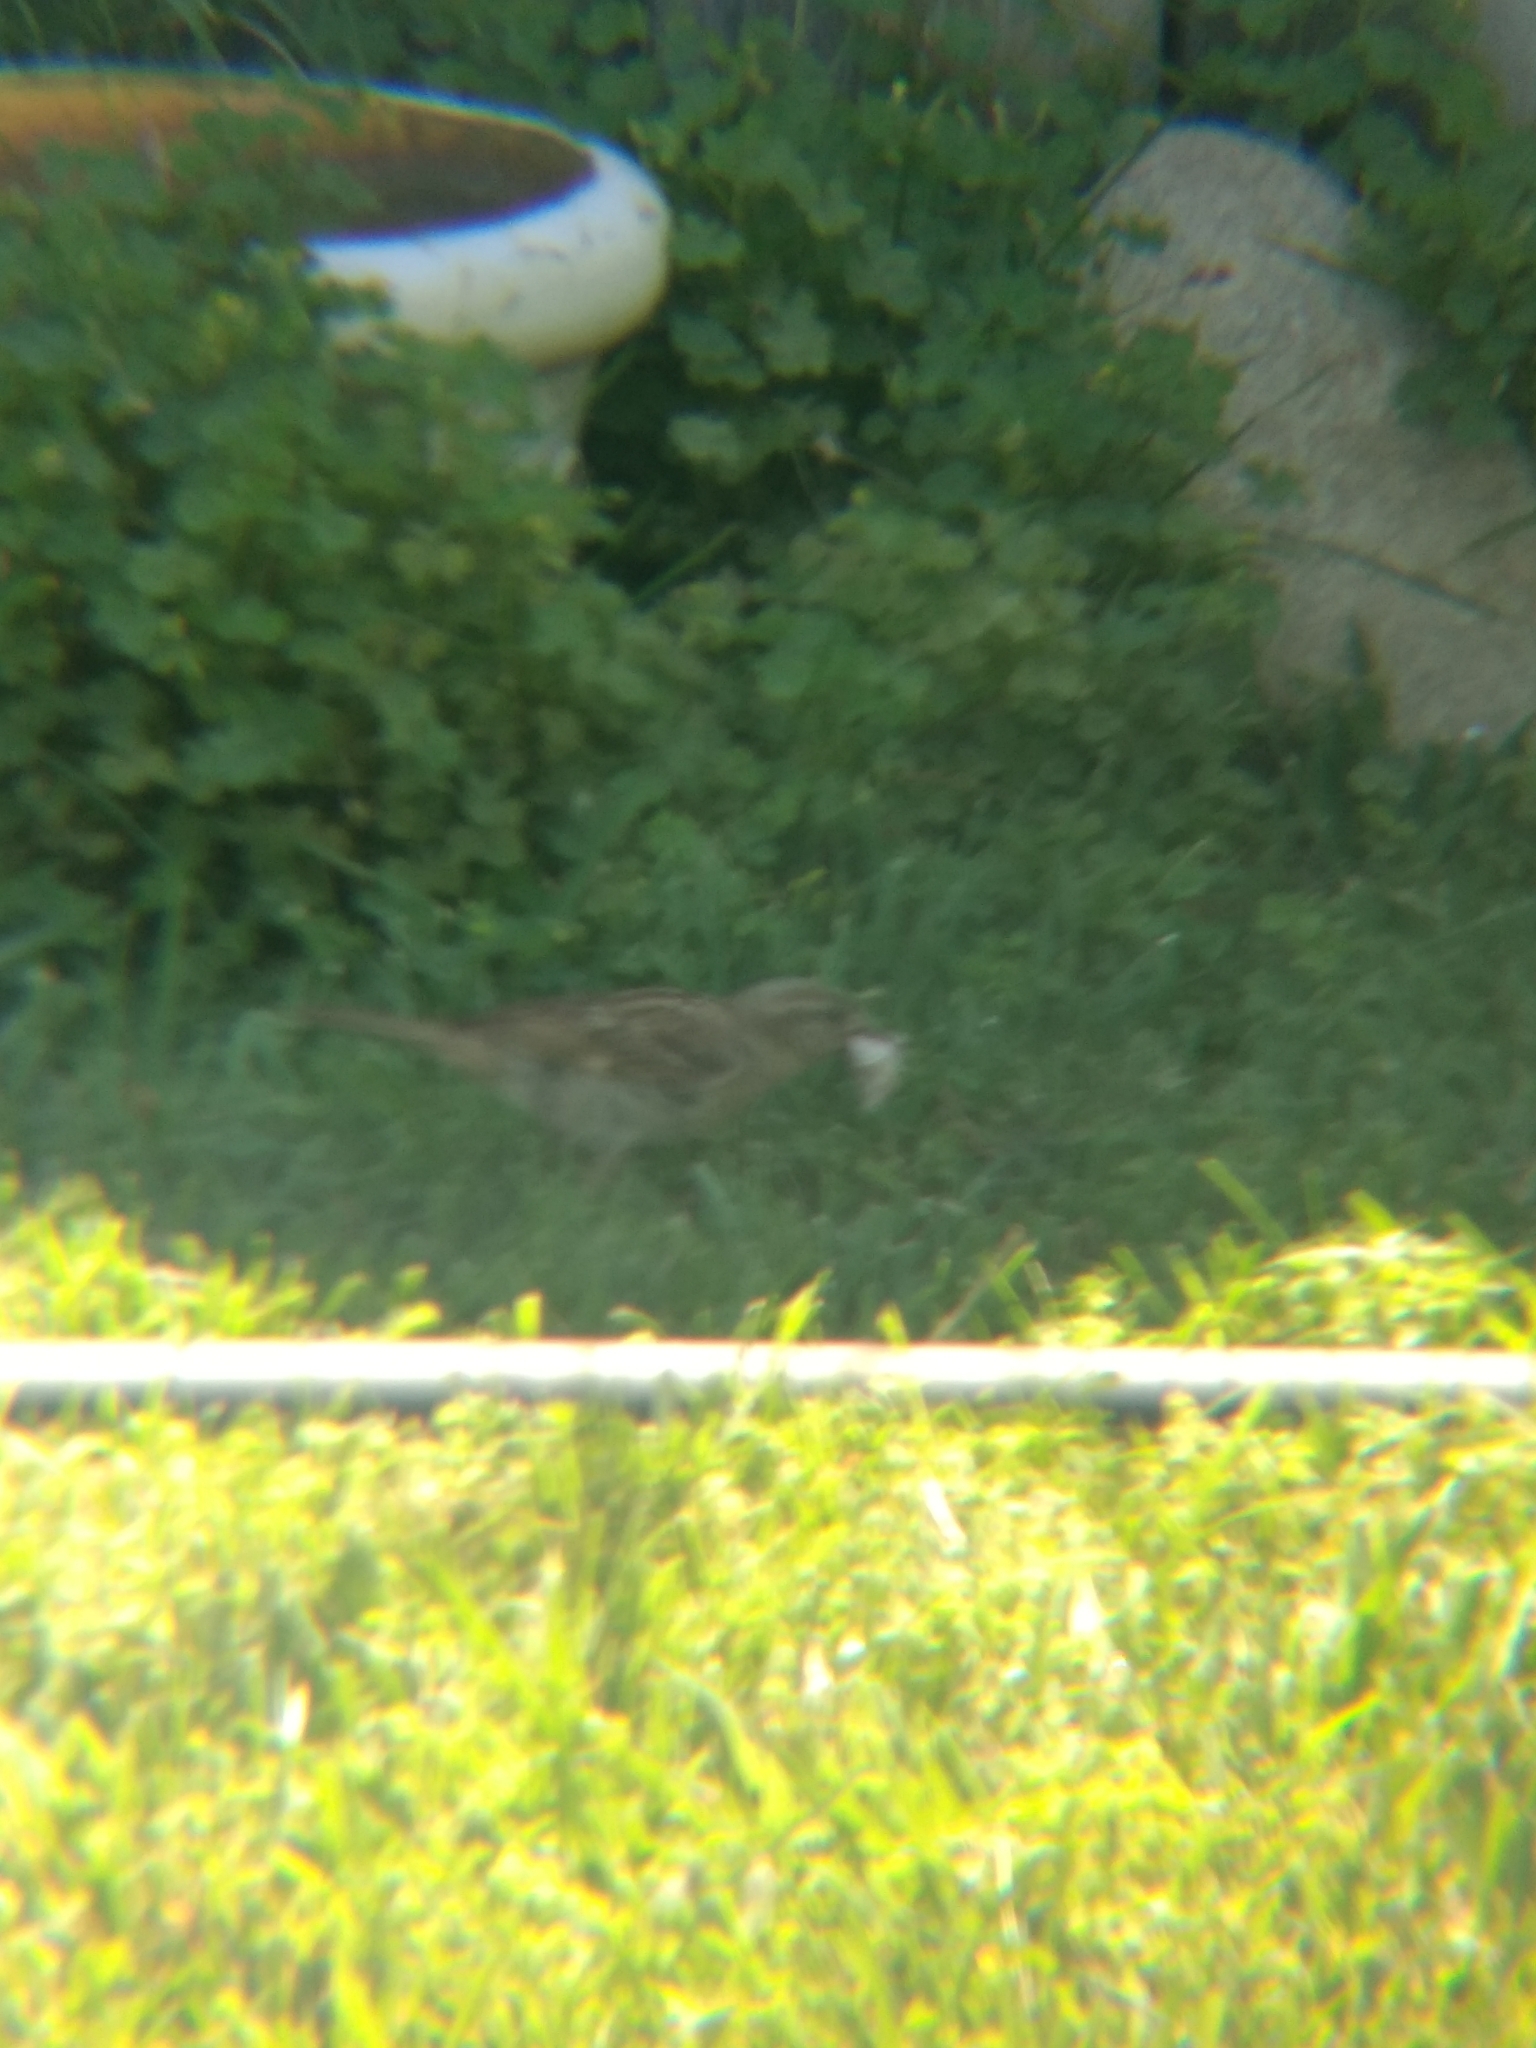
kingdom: Animalia
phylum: Chordata
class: Aves
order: Passeriformes
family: Passeridae
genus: Passer
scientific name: Passer domesticus
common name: House sparrow
